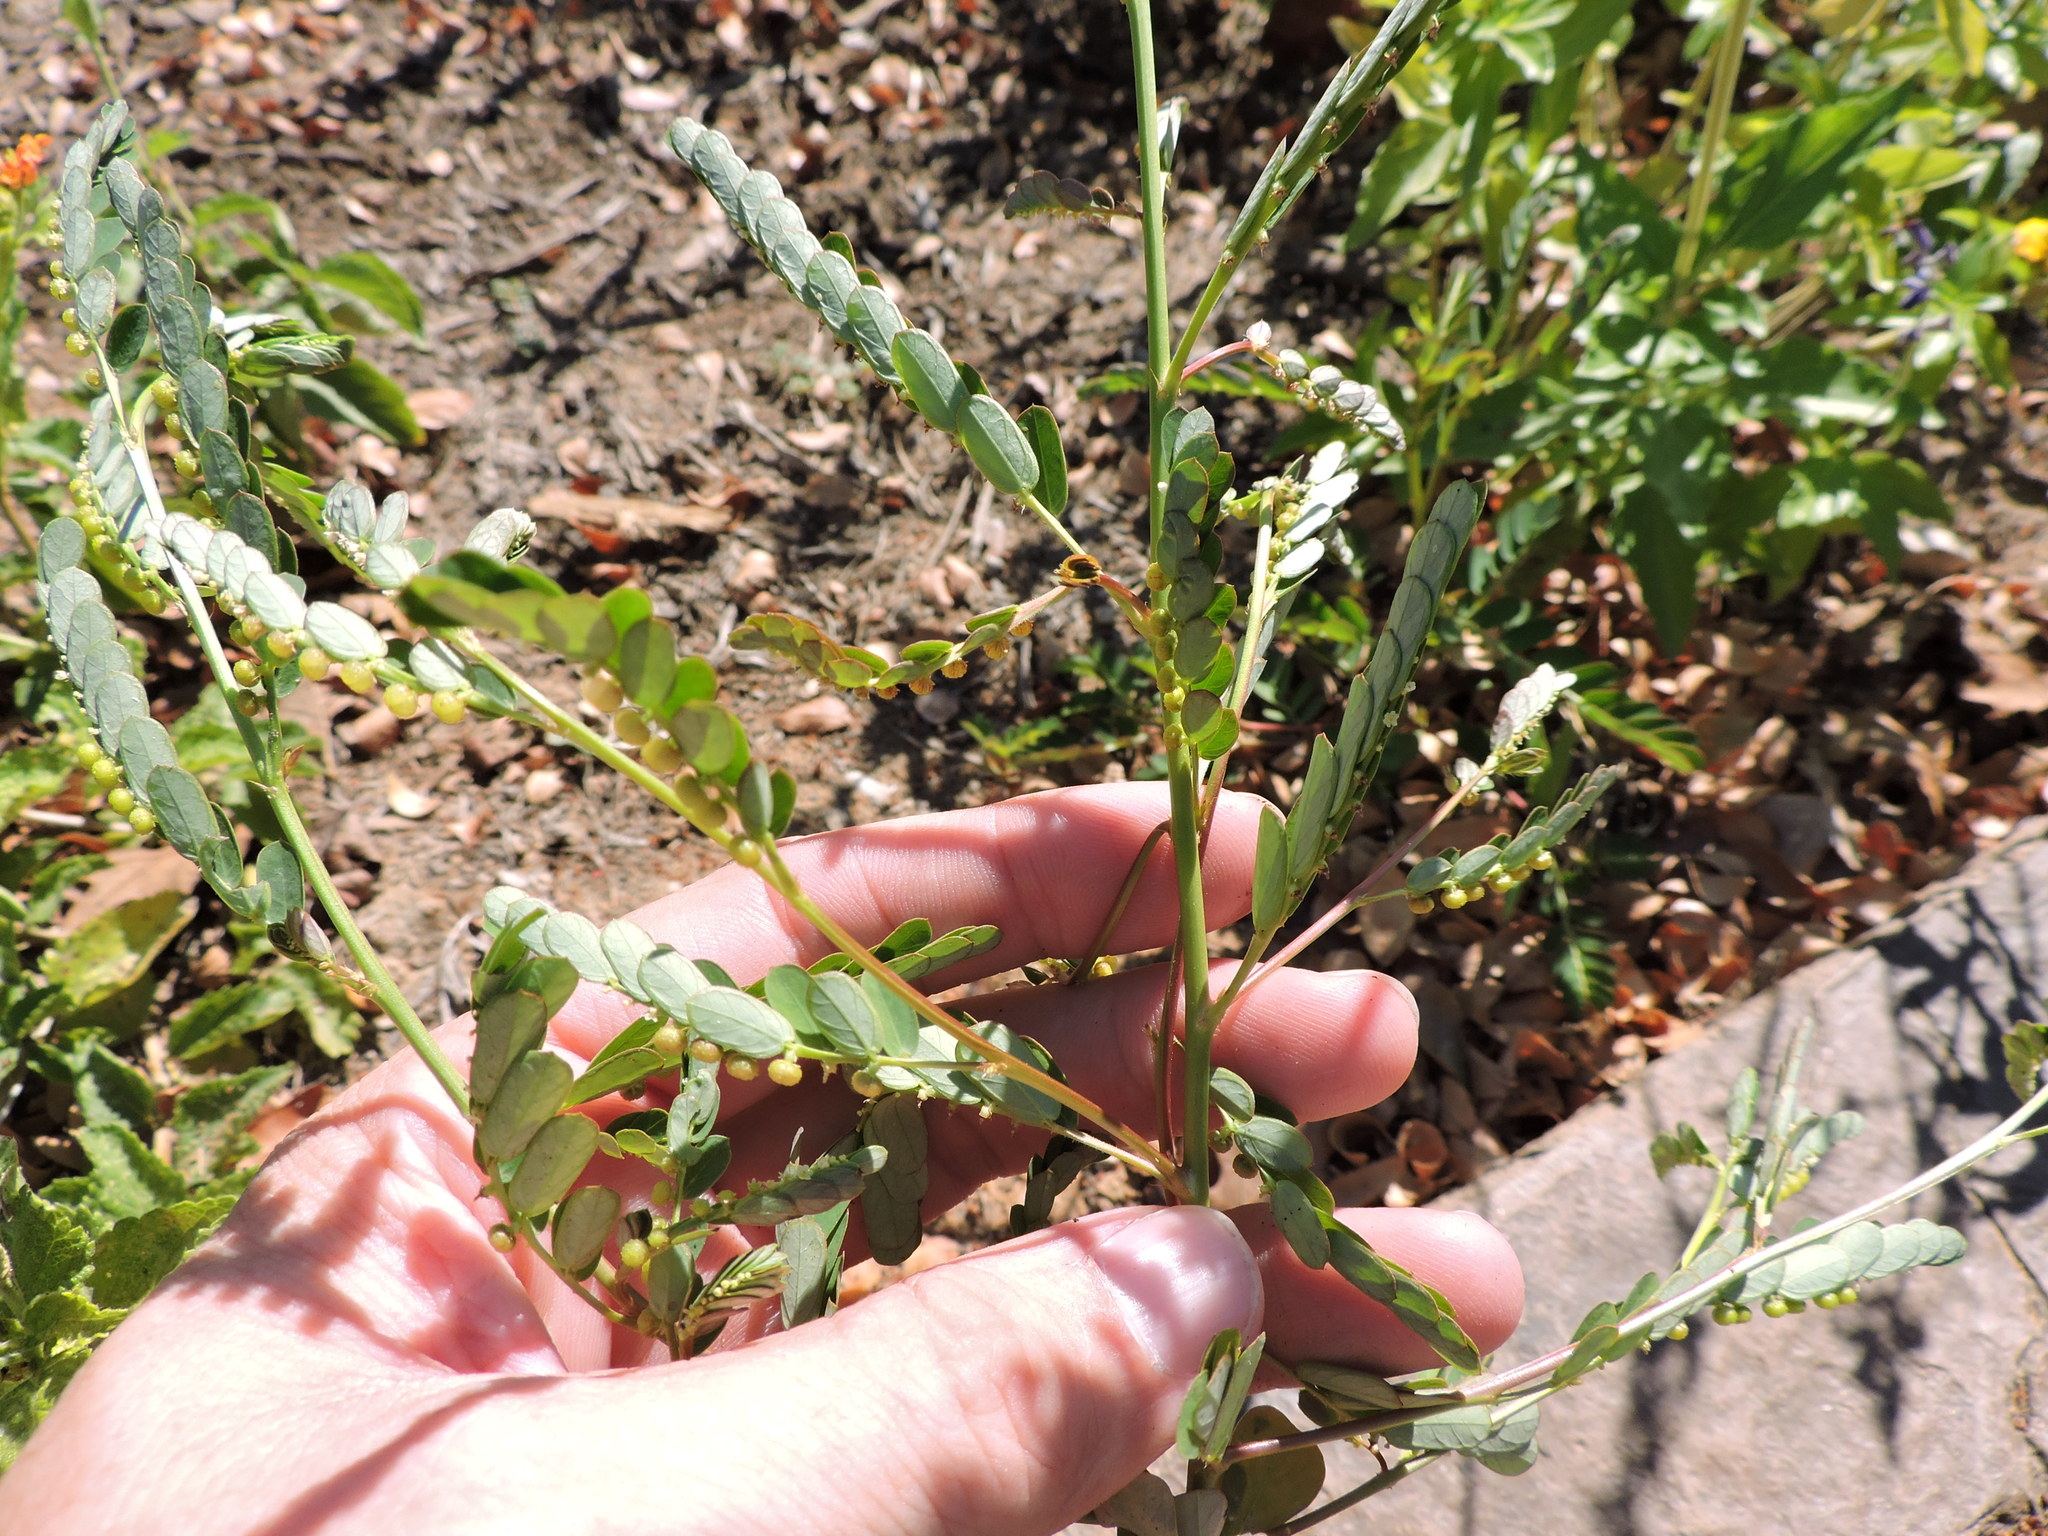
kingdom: Plantae
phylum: Tracheophyta
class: Magnoliopsida
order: Malpighiales
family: Phyllanthaceae
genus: Phyllanthus
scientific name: Phyllanthus urinaria
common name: Chamber bitter
